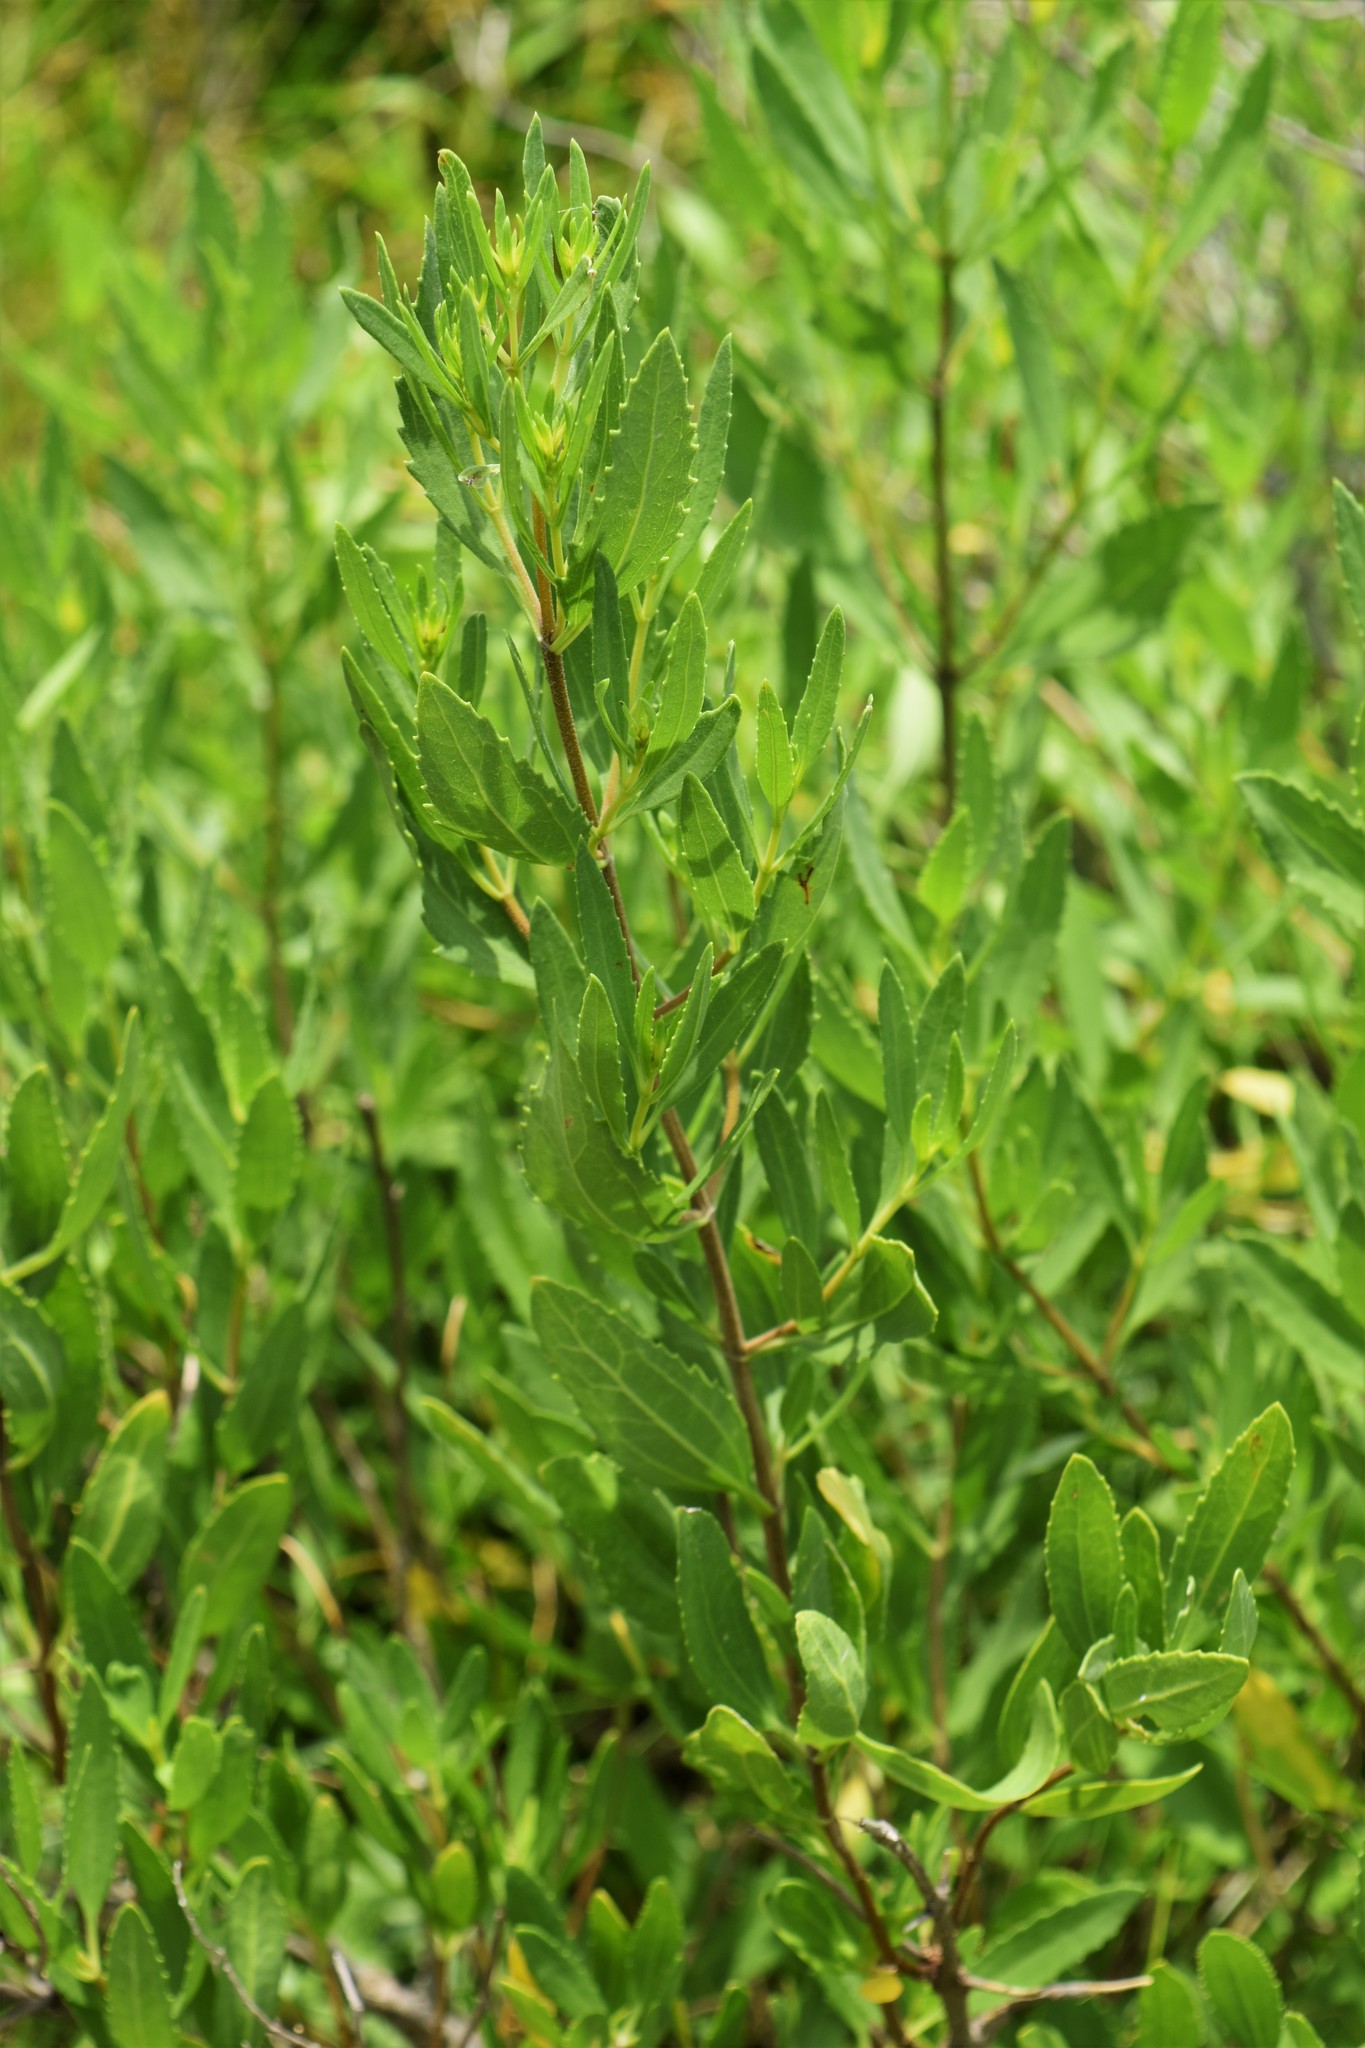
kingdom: Plantae
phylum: Tracheophyta
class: Magnoliopsida
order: Asterales
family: Asteraceae
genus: Iva
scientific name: Iva frutescens
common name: Big-leaved marsh-elder
